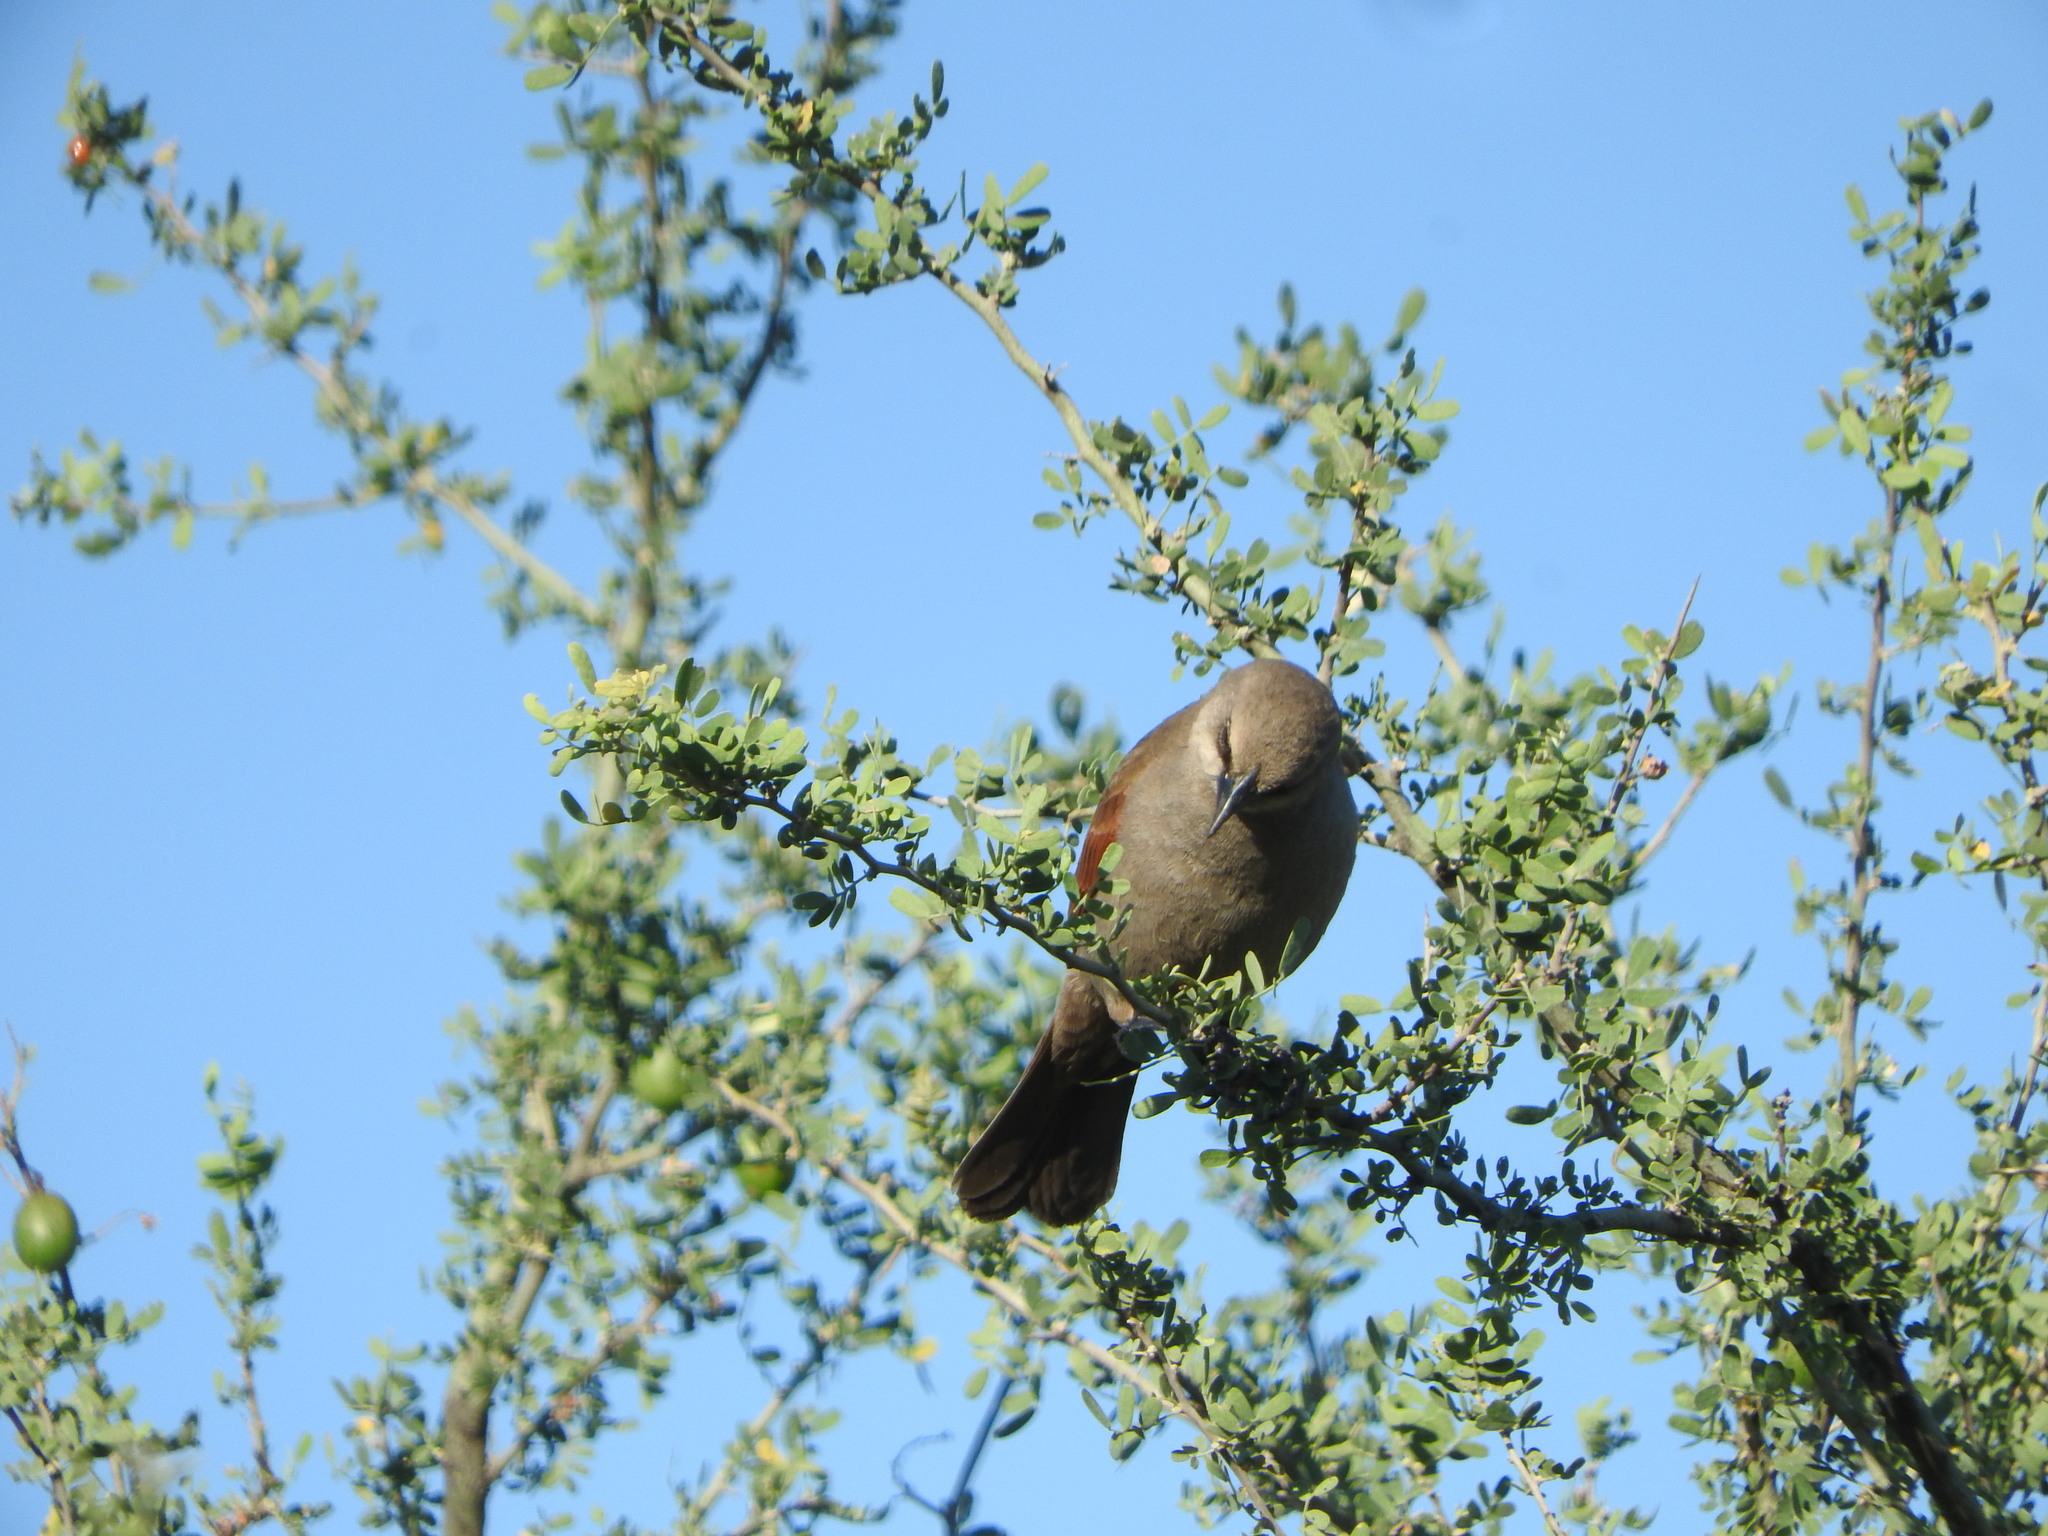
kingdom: Animalia
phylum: Chordata
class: Aves
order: Passeriformes
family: Icteridae
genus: Agelaioides
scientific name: Agelaioides badius
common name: Baywing
